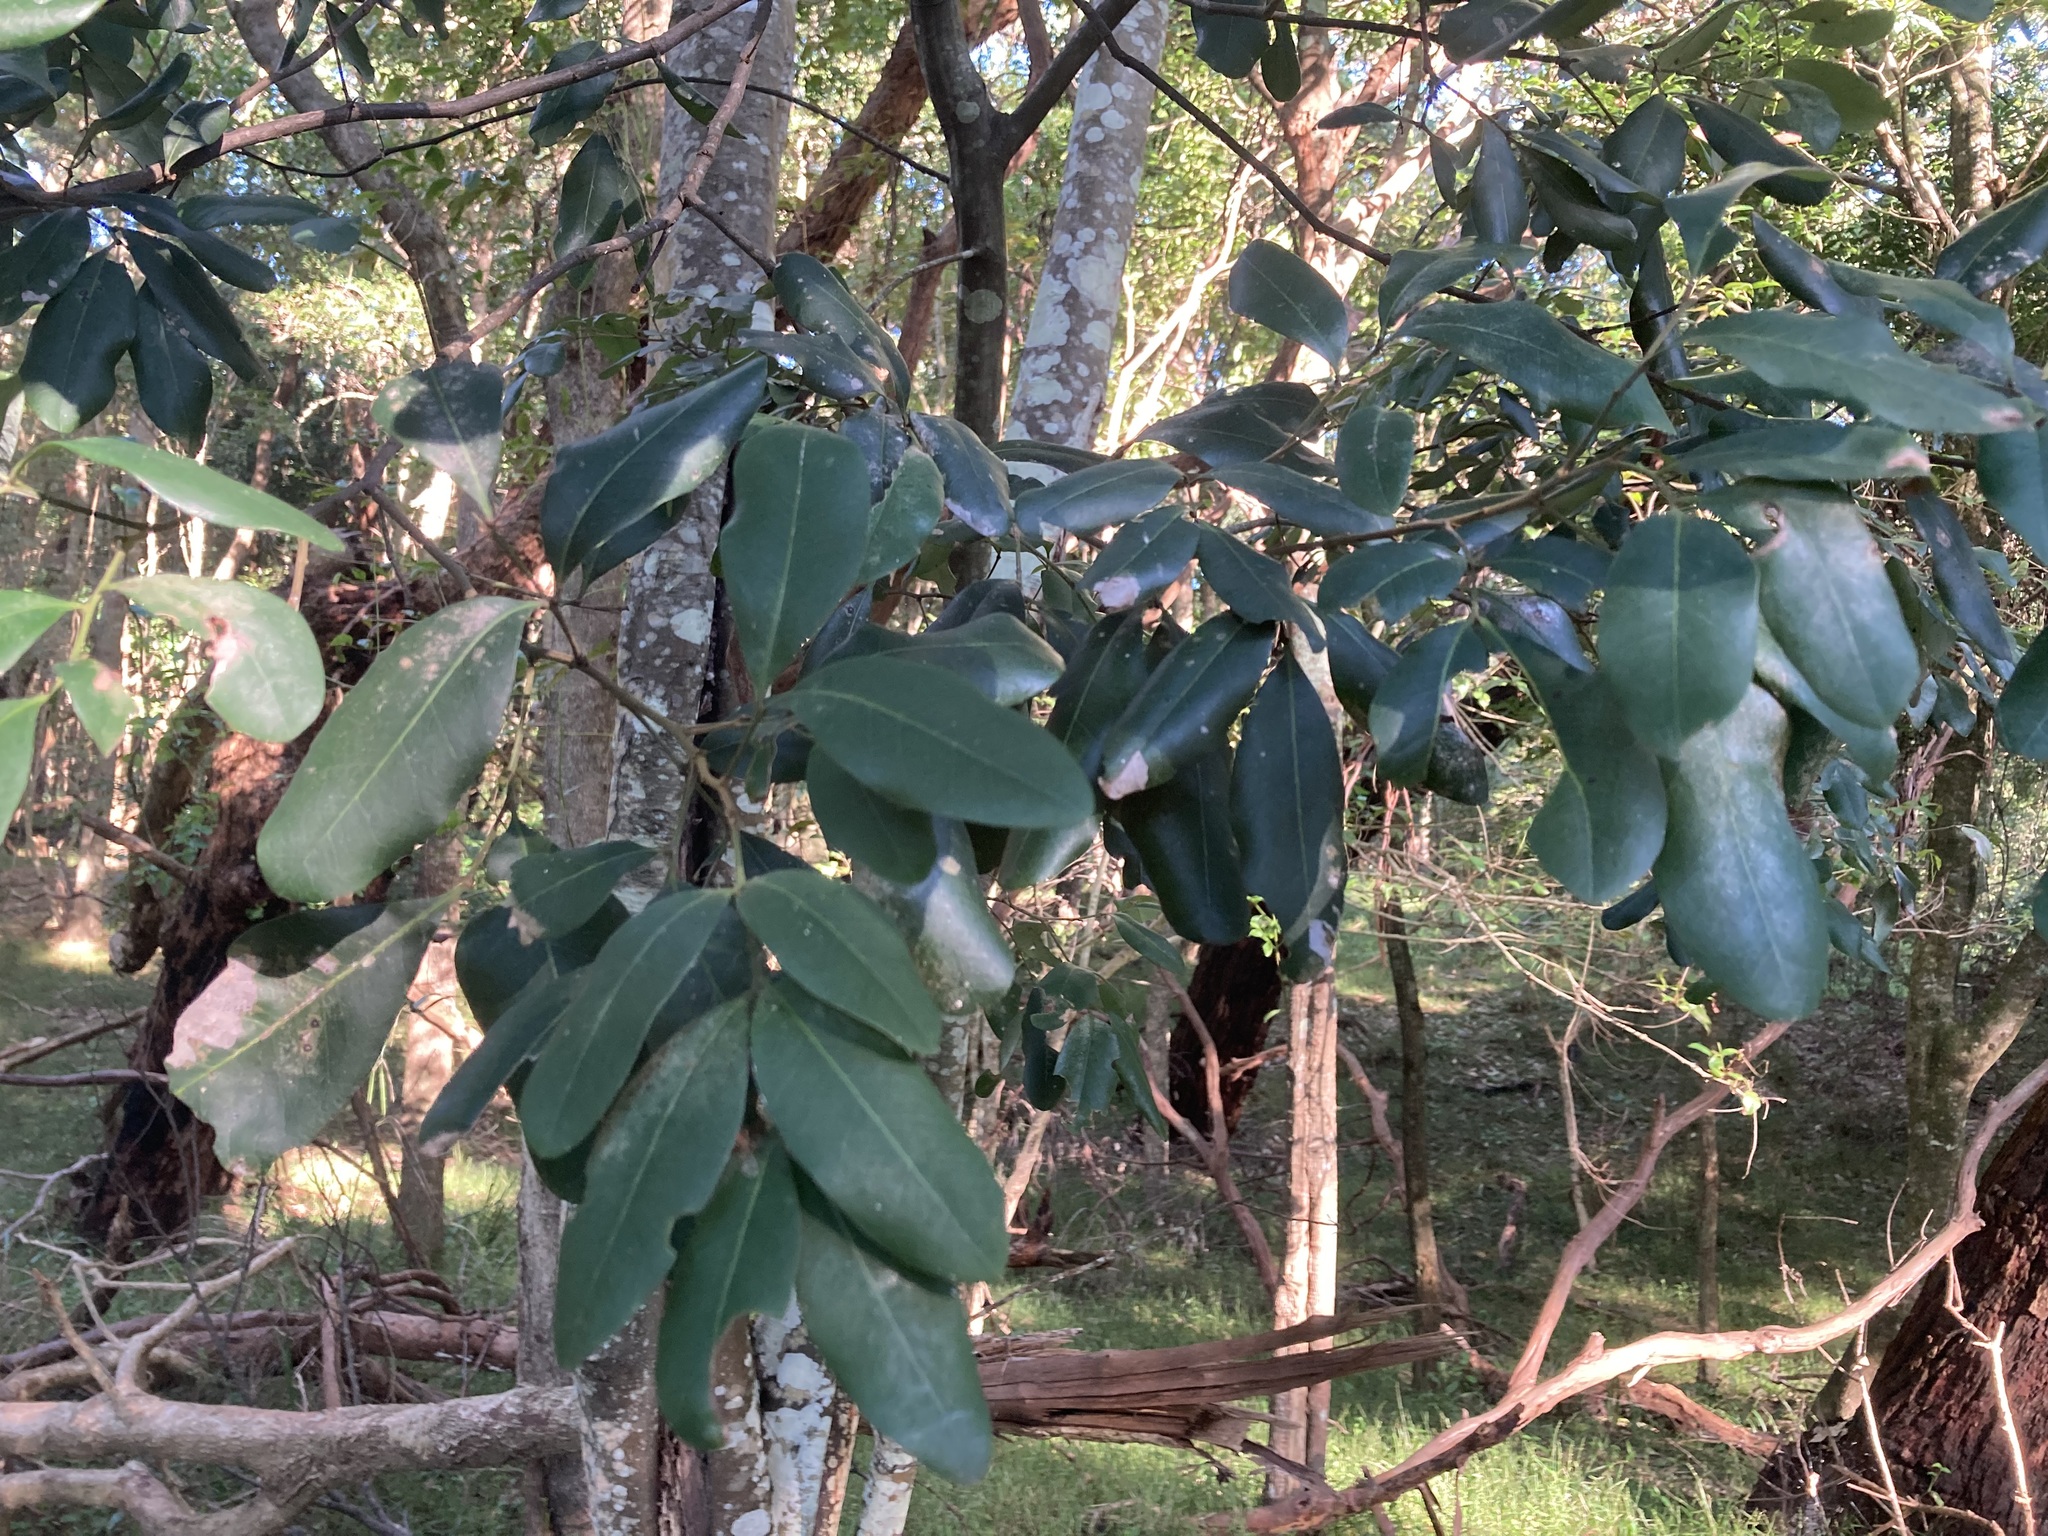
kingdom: Plantae
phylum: Tracheophyta
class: Magnoliopsida
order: Sapindales
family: Sapindaceae
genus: Guioa
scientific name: Guioa semiglauca
